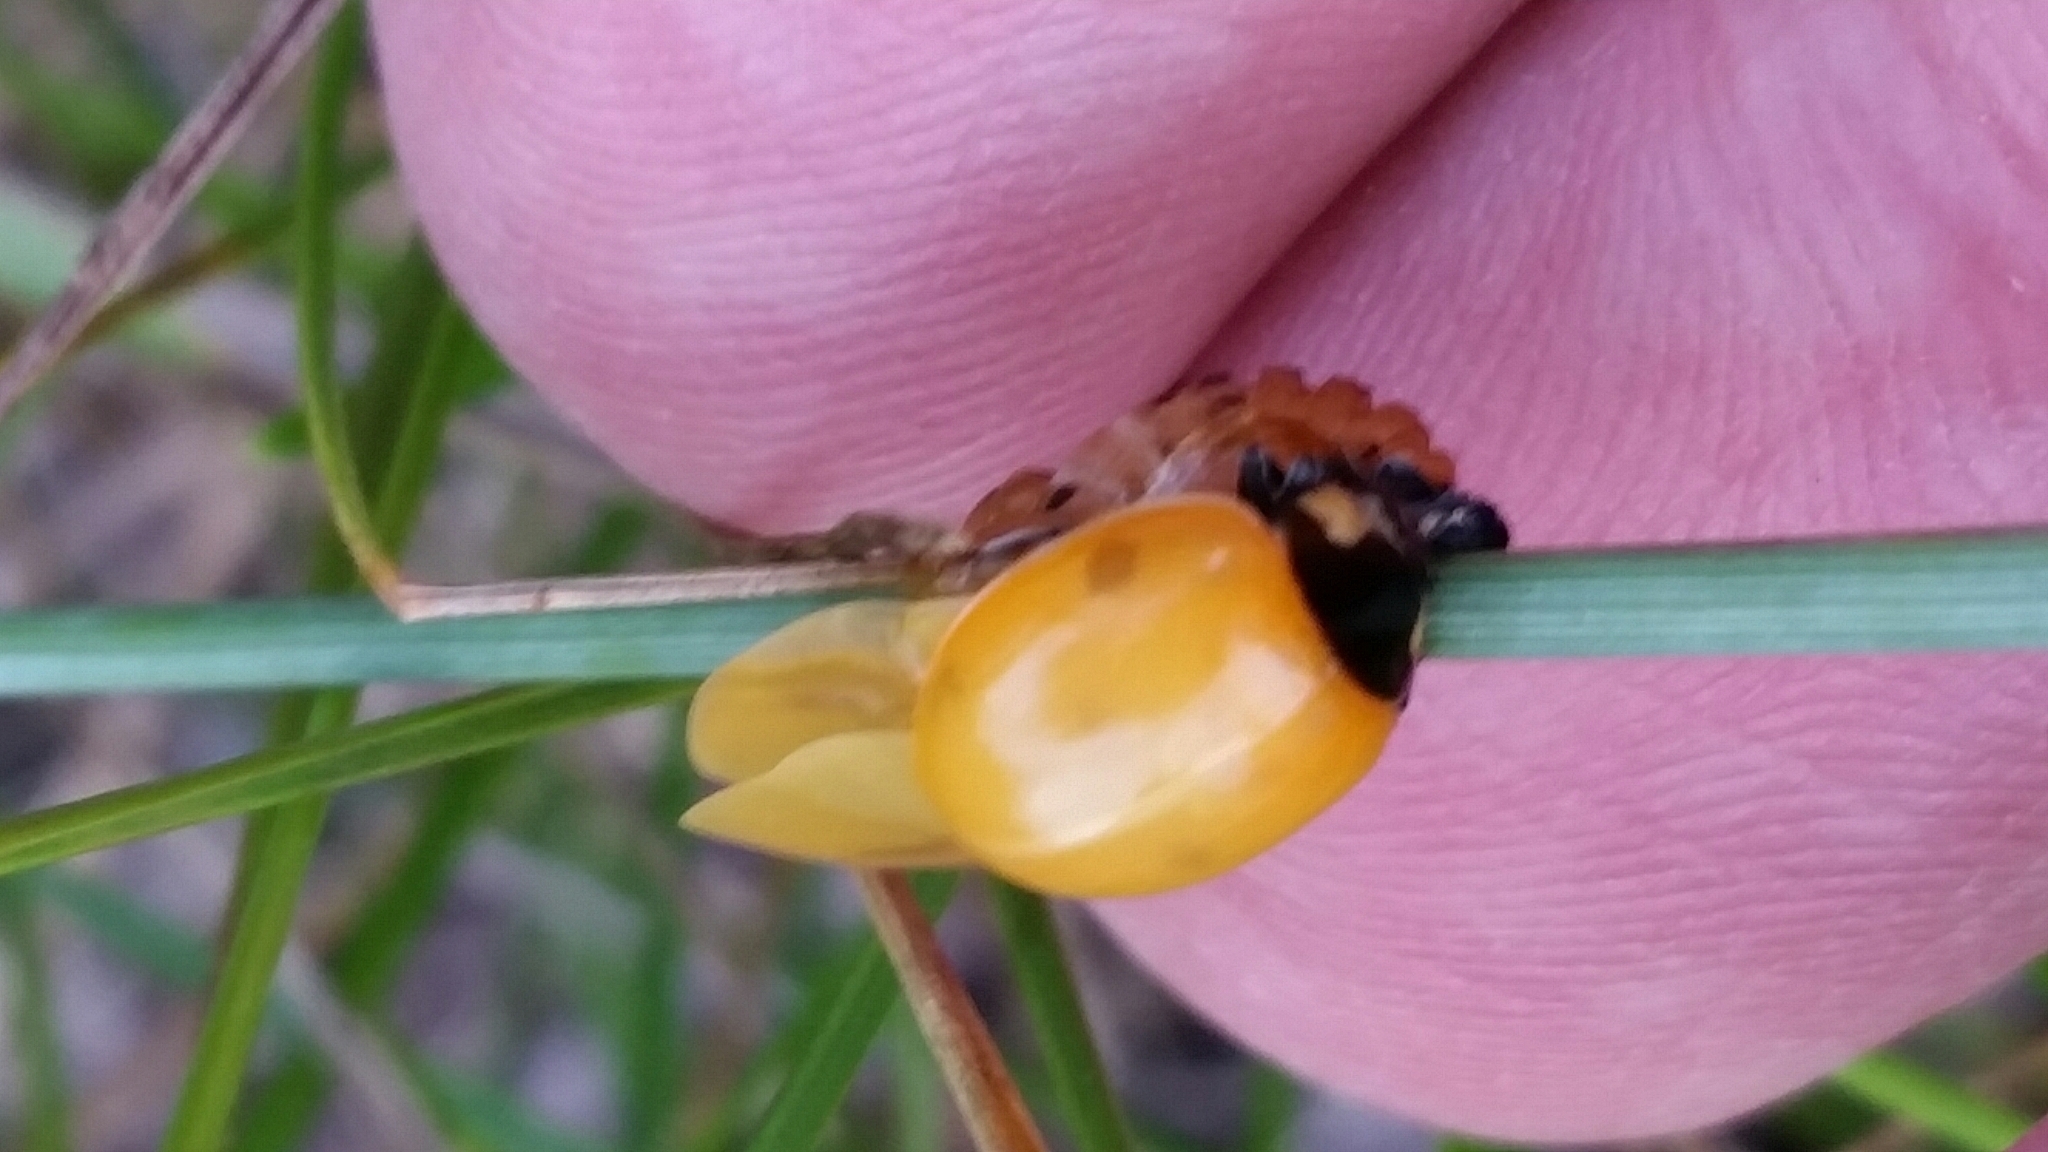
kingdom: Animalia
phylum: Arthropoda
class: Insecta
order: Coleoptera
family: Coccinellidae
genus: Coccinella
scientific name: Coccinella septempunctata
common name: Sevenspotted lady beetle
